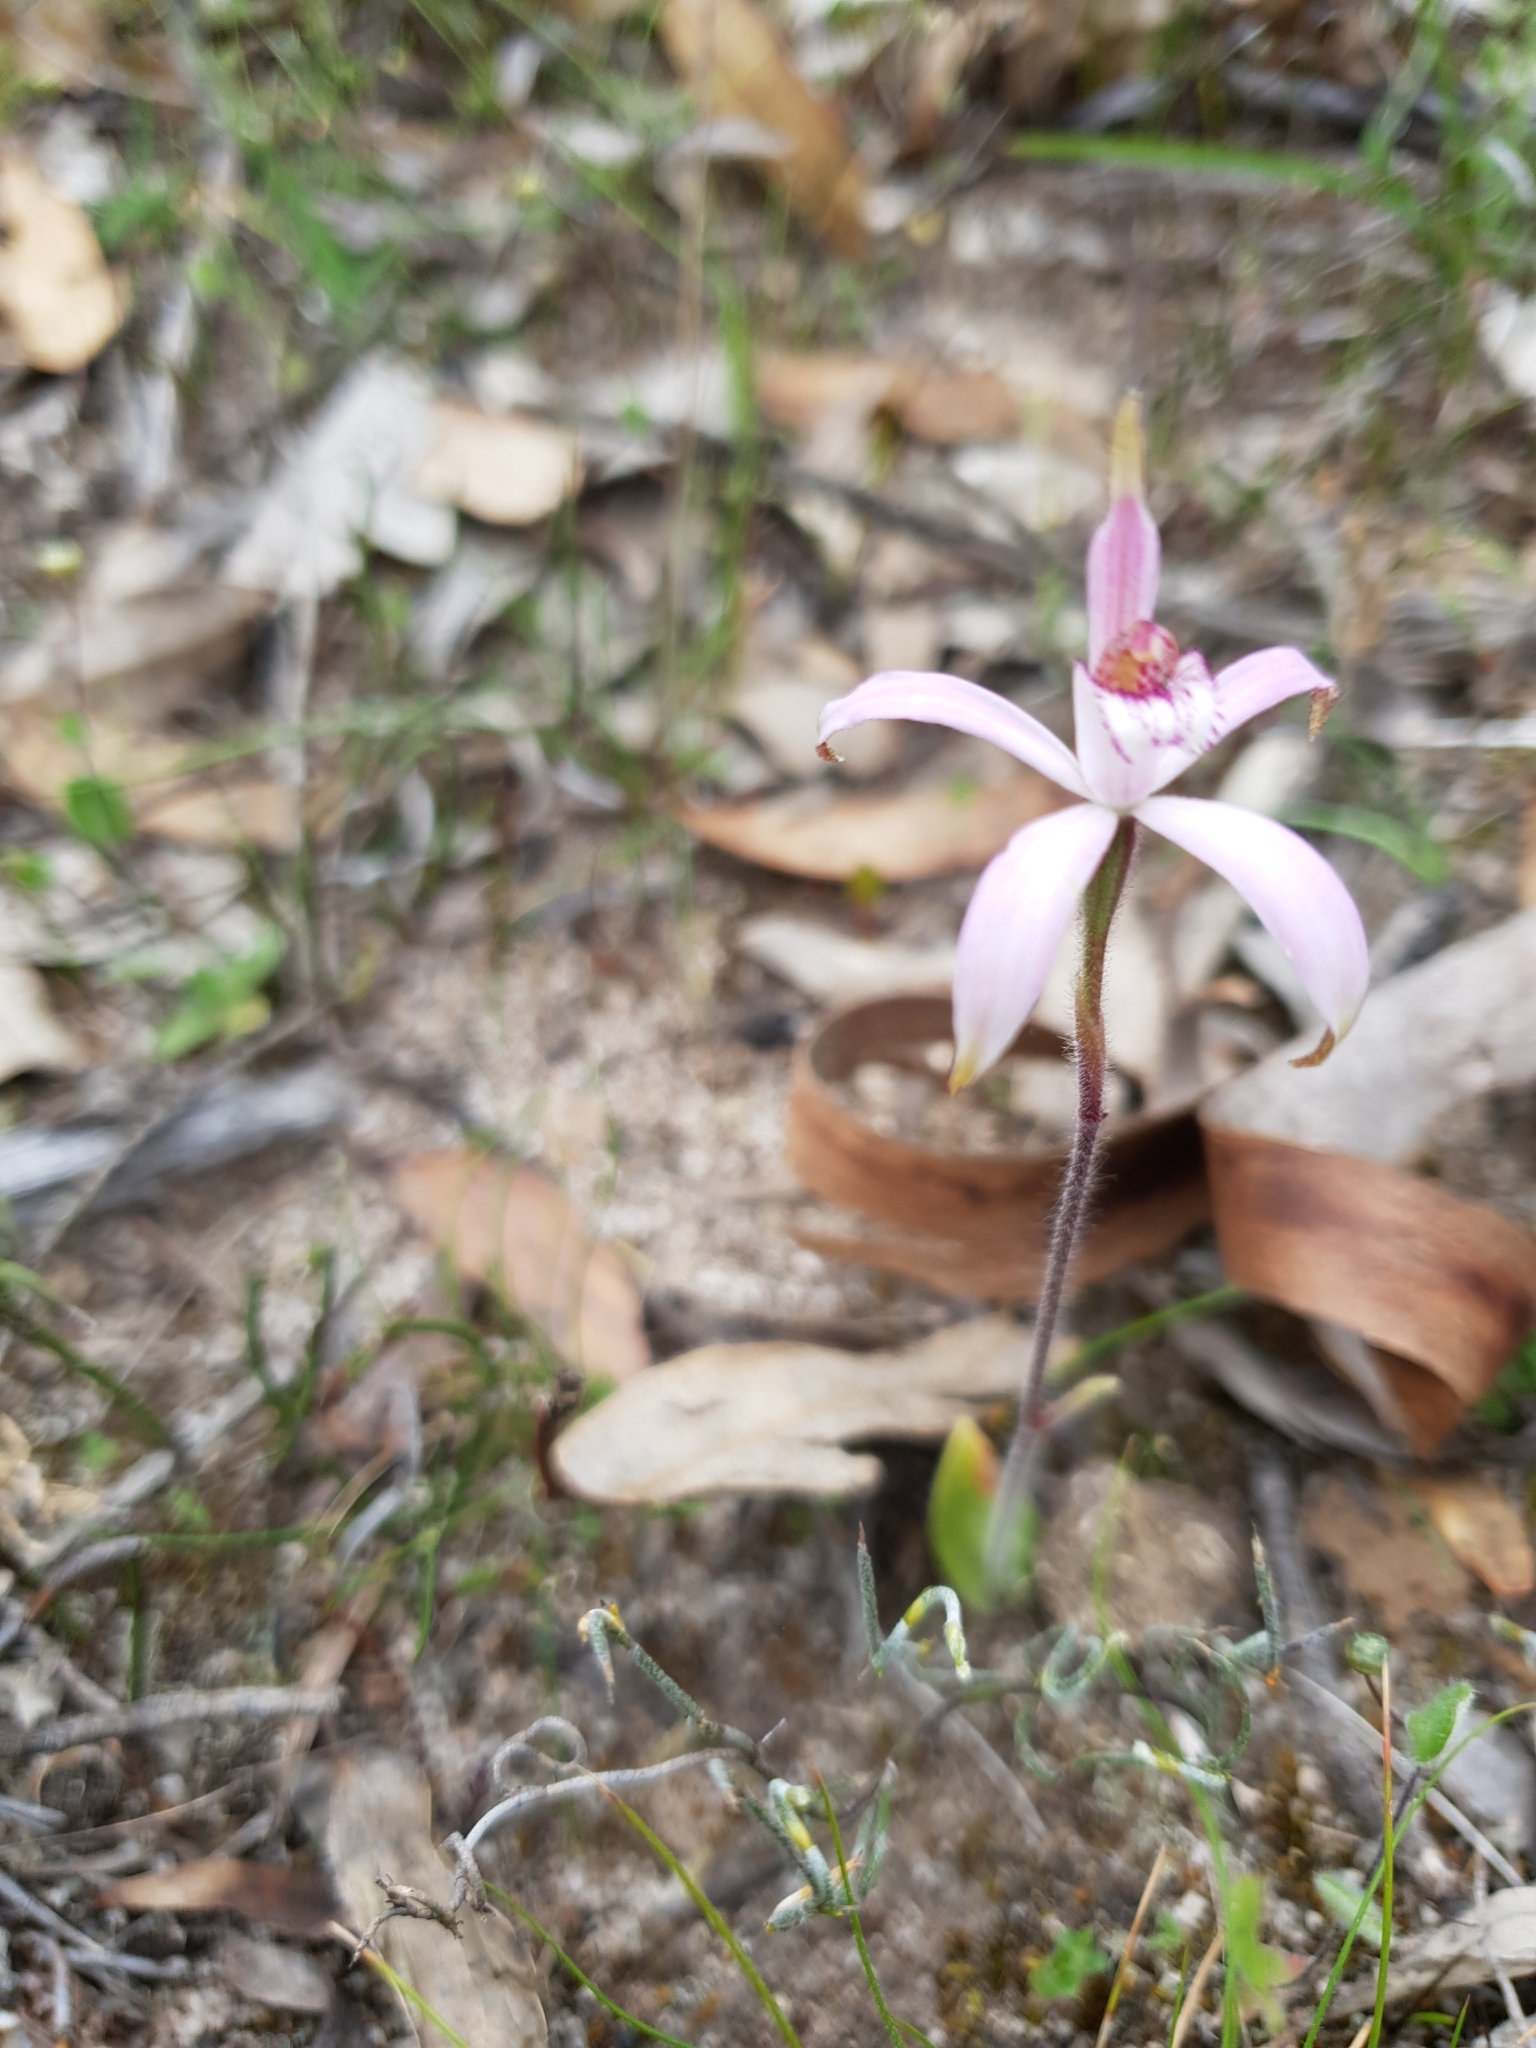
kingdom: Plantae
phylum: Tracheophyta
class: Liliopsida
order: Asparagales
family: Orchidaceae
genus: Caladenia
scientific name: Caladenia hirta
